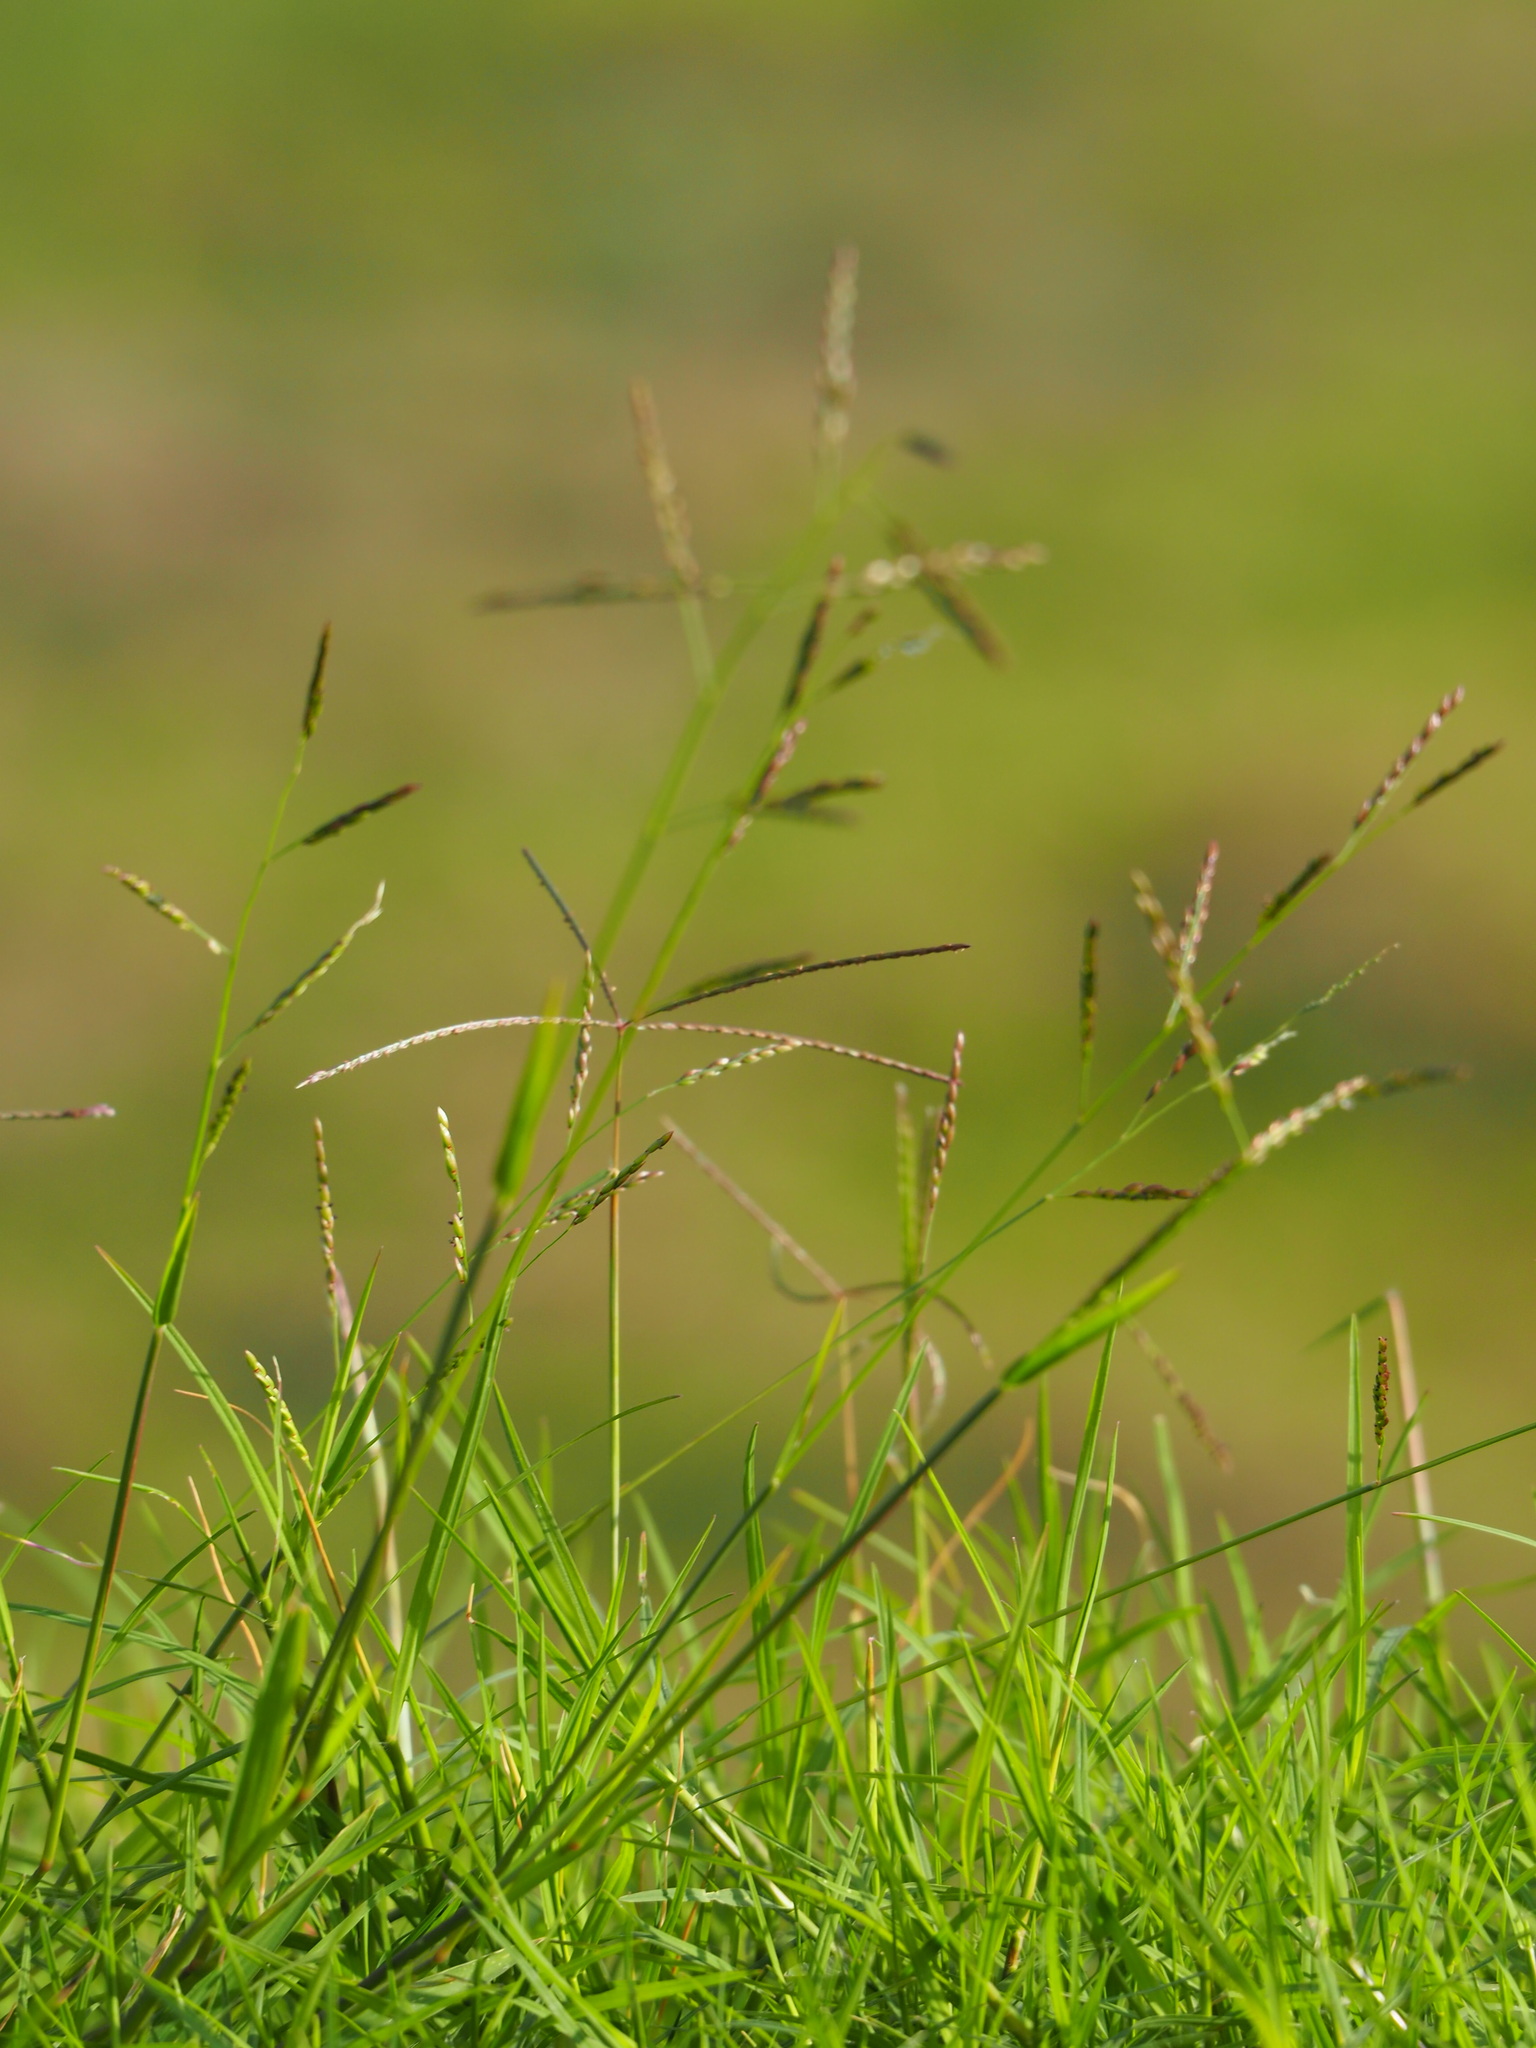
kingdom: Plantae
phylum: Tracheophyta
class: Liliopsida
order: Poales
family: Poaceae
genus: Eriochloa
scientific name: Eriochloa procera
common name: Spring grass
